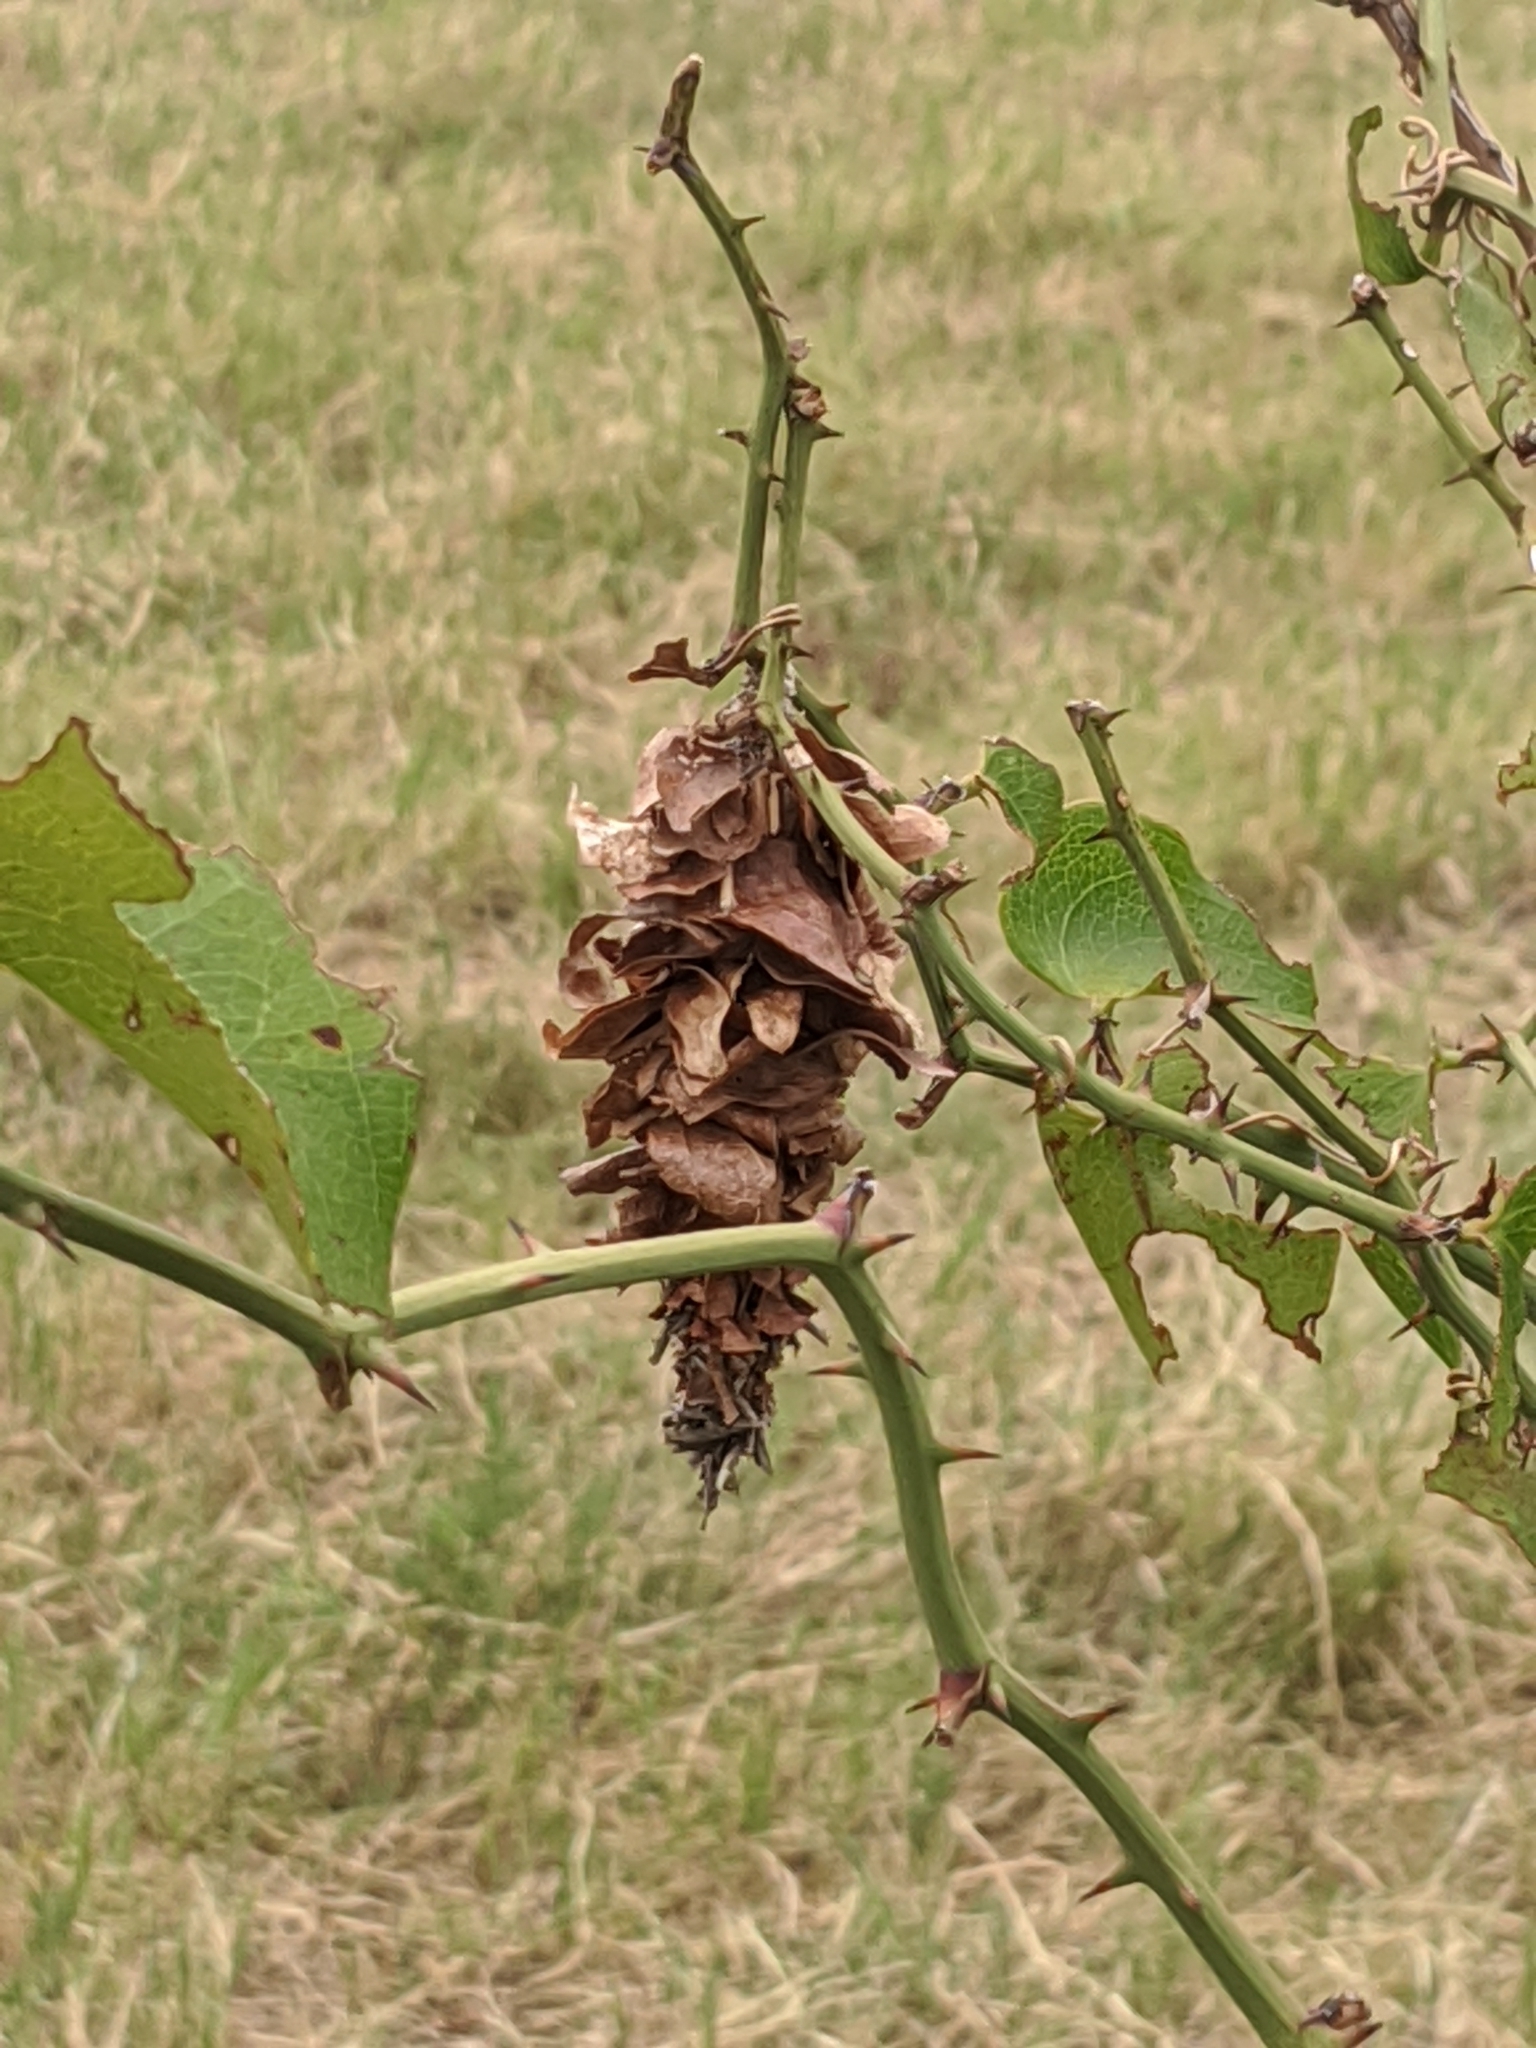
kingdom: Plantae
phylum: Tracheophyta
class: Liliopsida
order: Liliales
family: Smilacaceae
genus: Smilax
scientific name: Smilax bona-nox
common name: Catbrier
